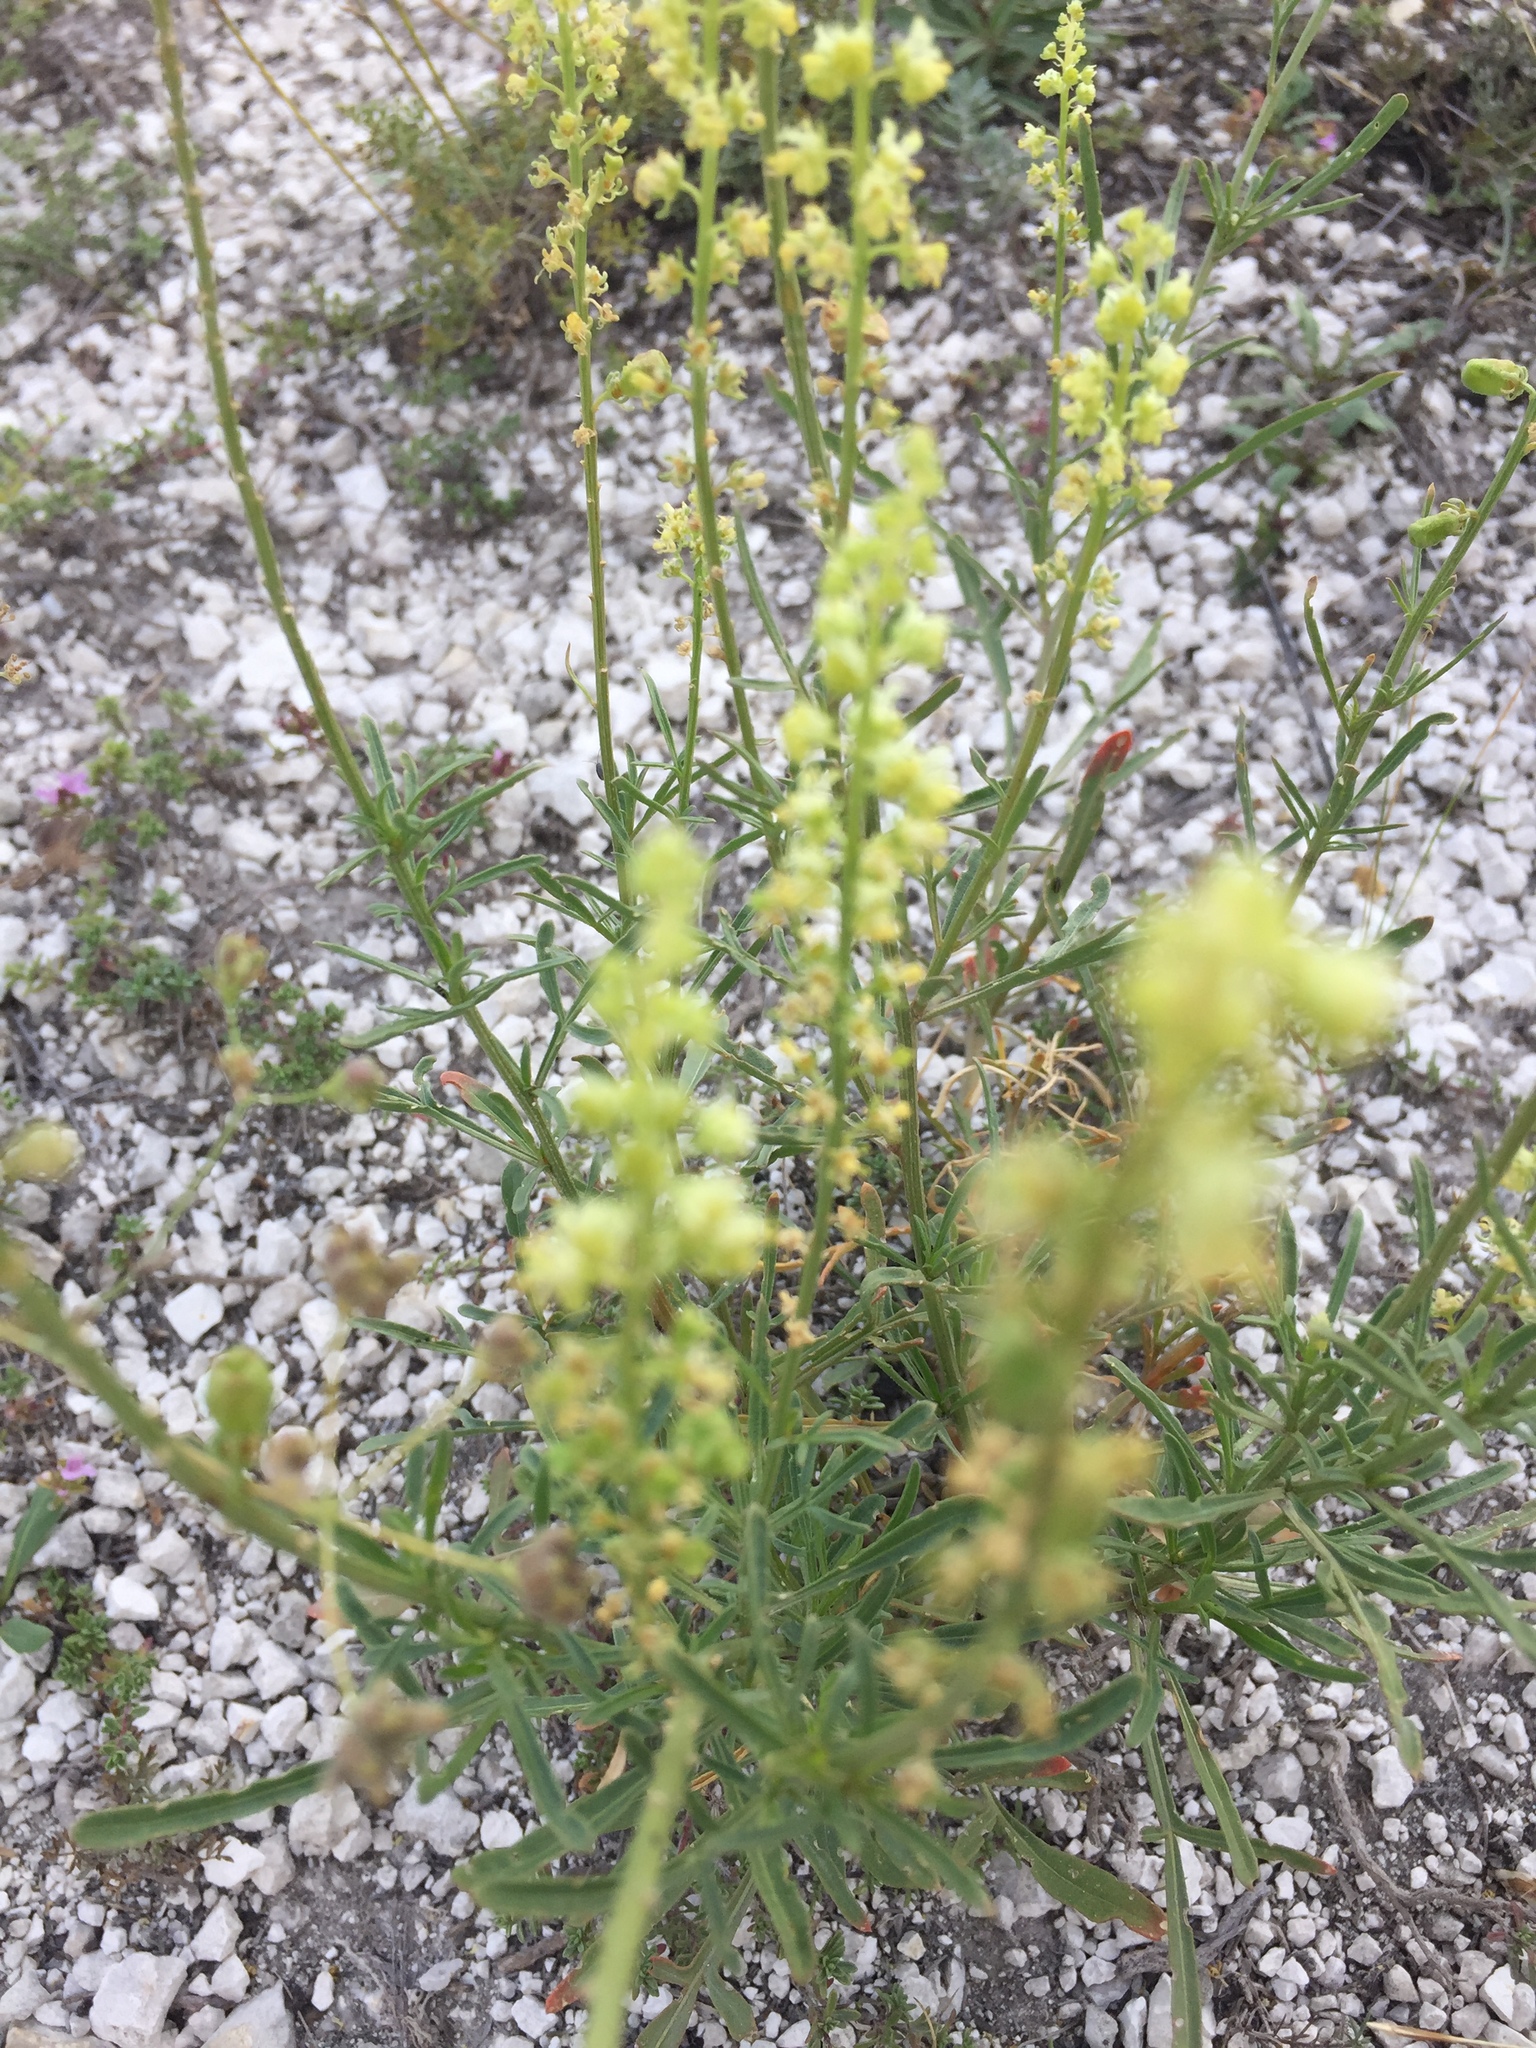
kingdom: Plantae
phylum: Tracheophyta
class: Magnoliopsida
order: Brassicales
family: Resedaceae
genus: Reseda
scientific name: Reseda lutea
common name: Wild mignonette
